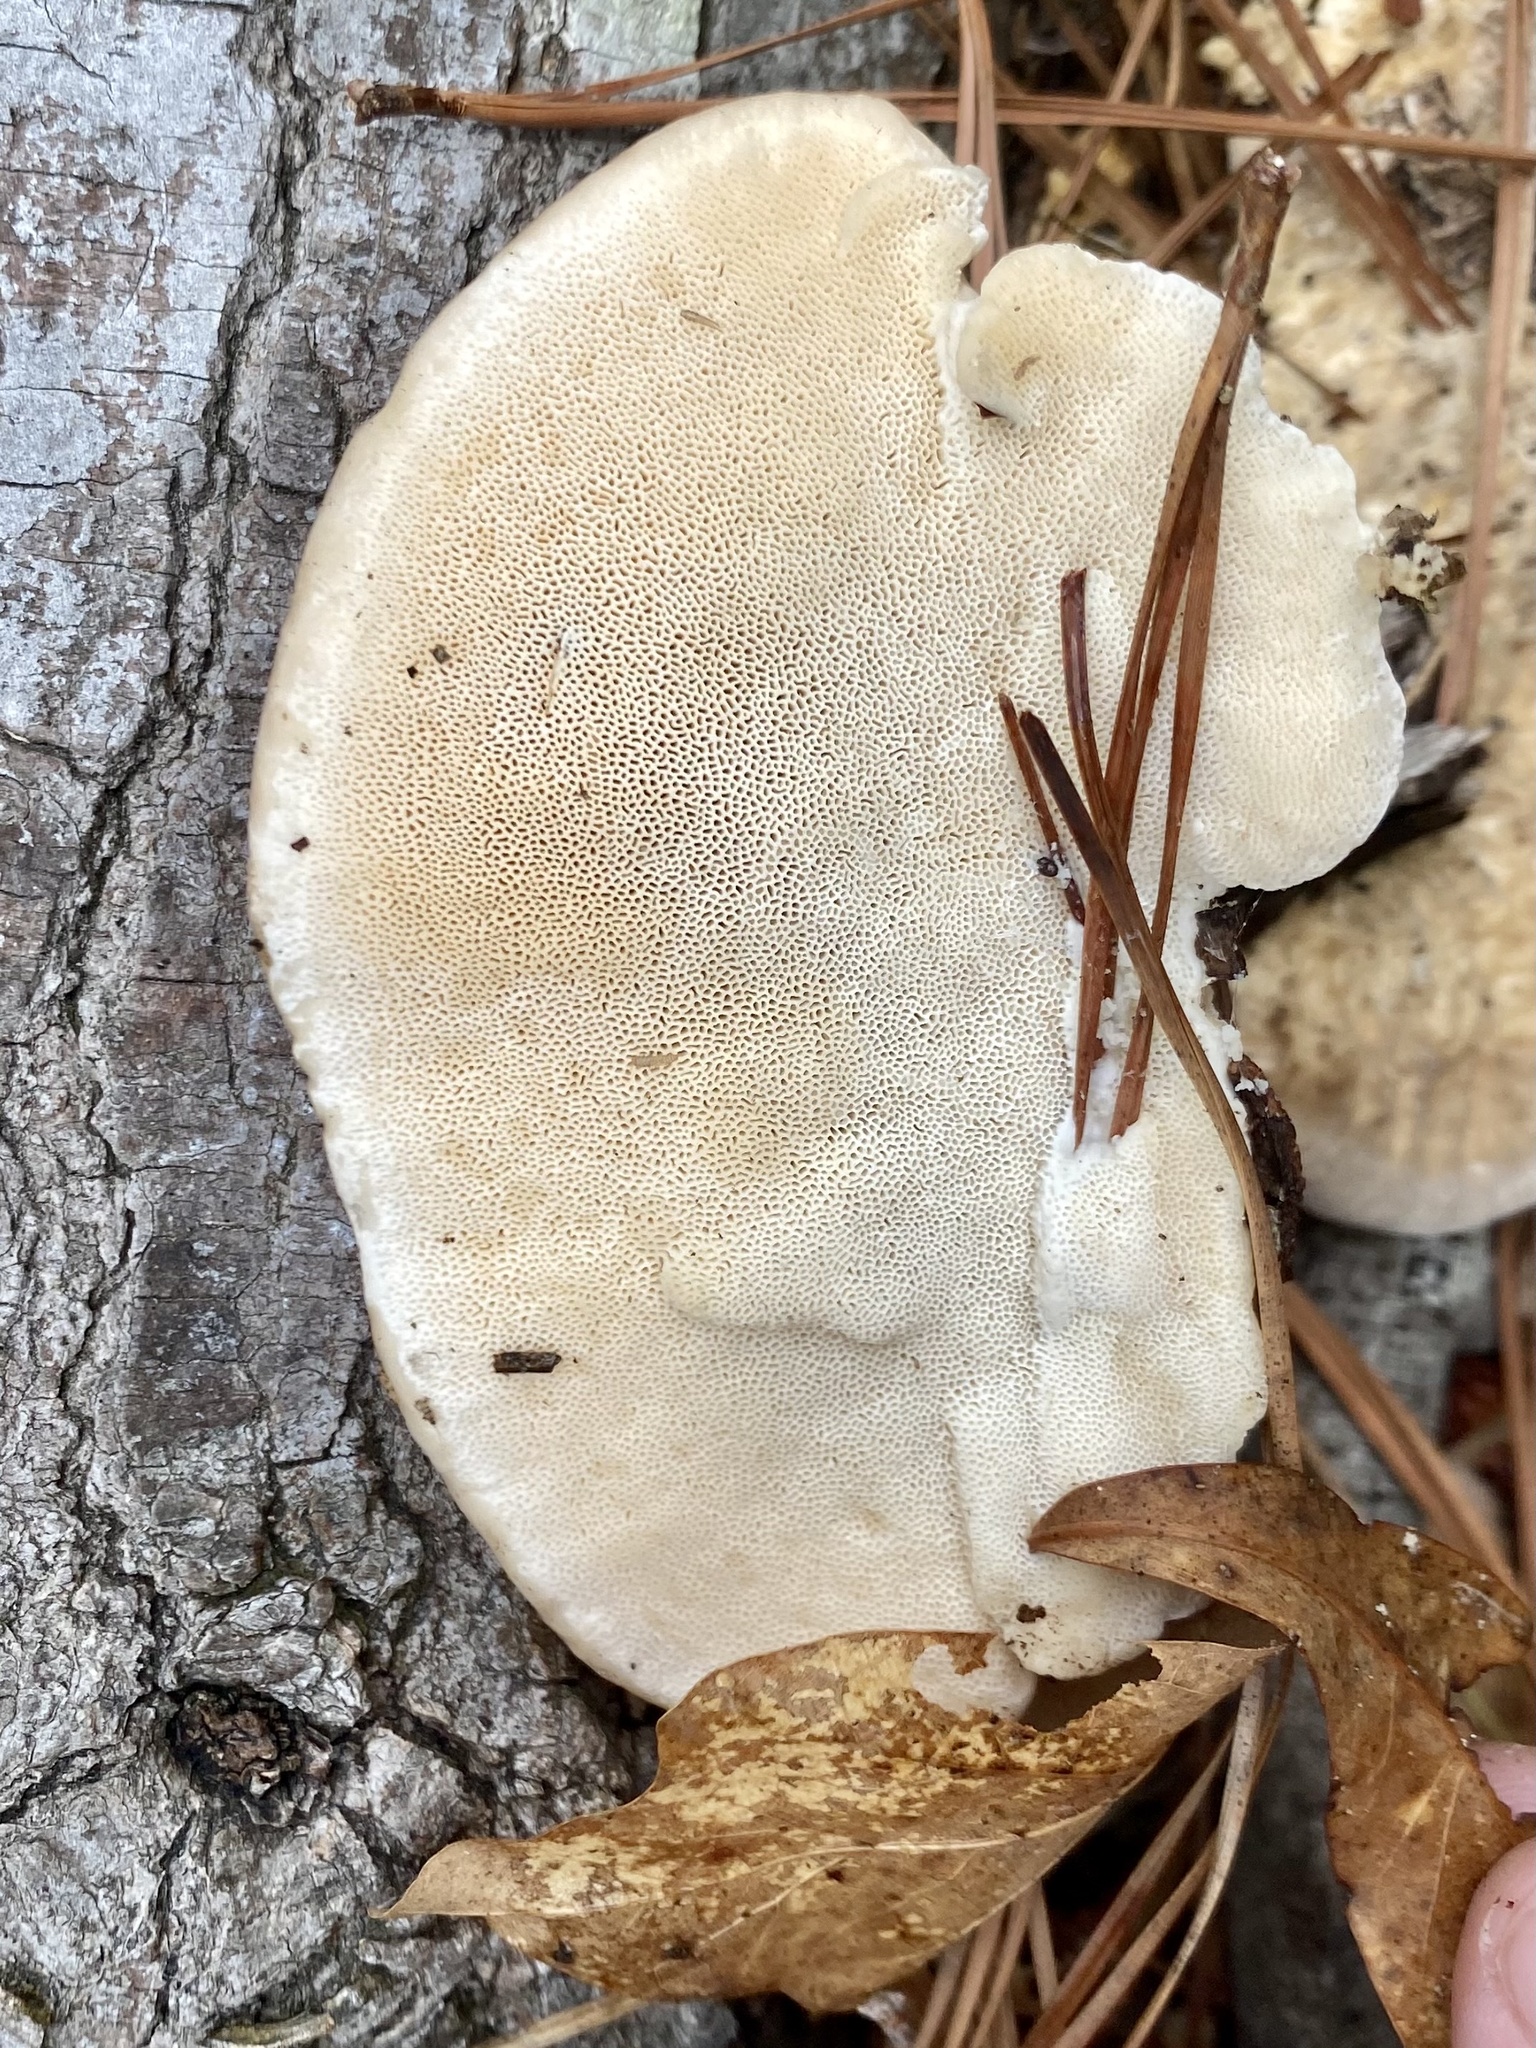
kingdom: Fungi
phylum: Basidiomycota
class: Agaricomycetes
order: Polyporales
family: Polyporaceae
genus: Trametes
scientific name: Trametes lactinea
